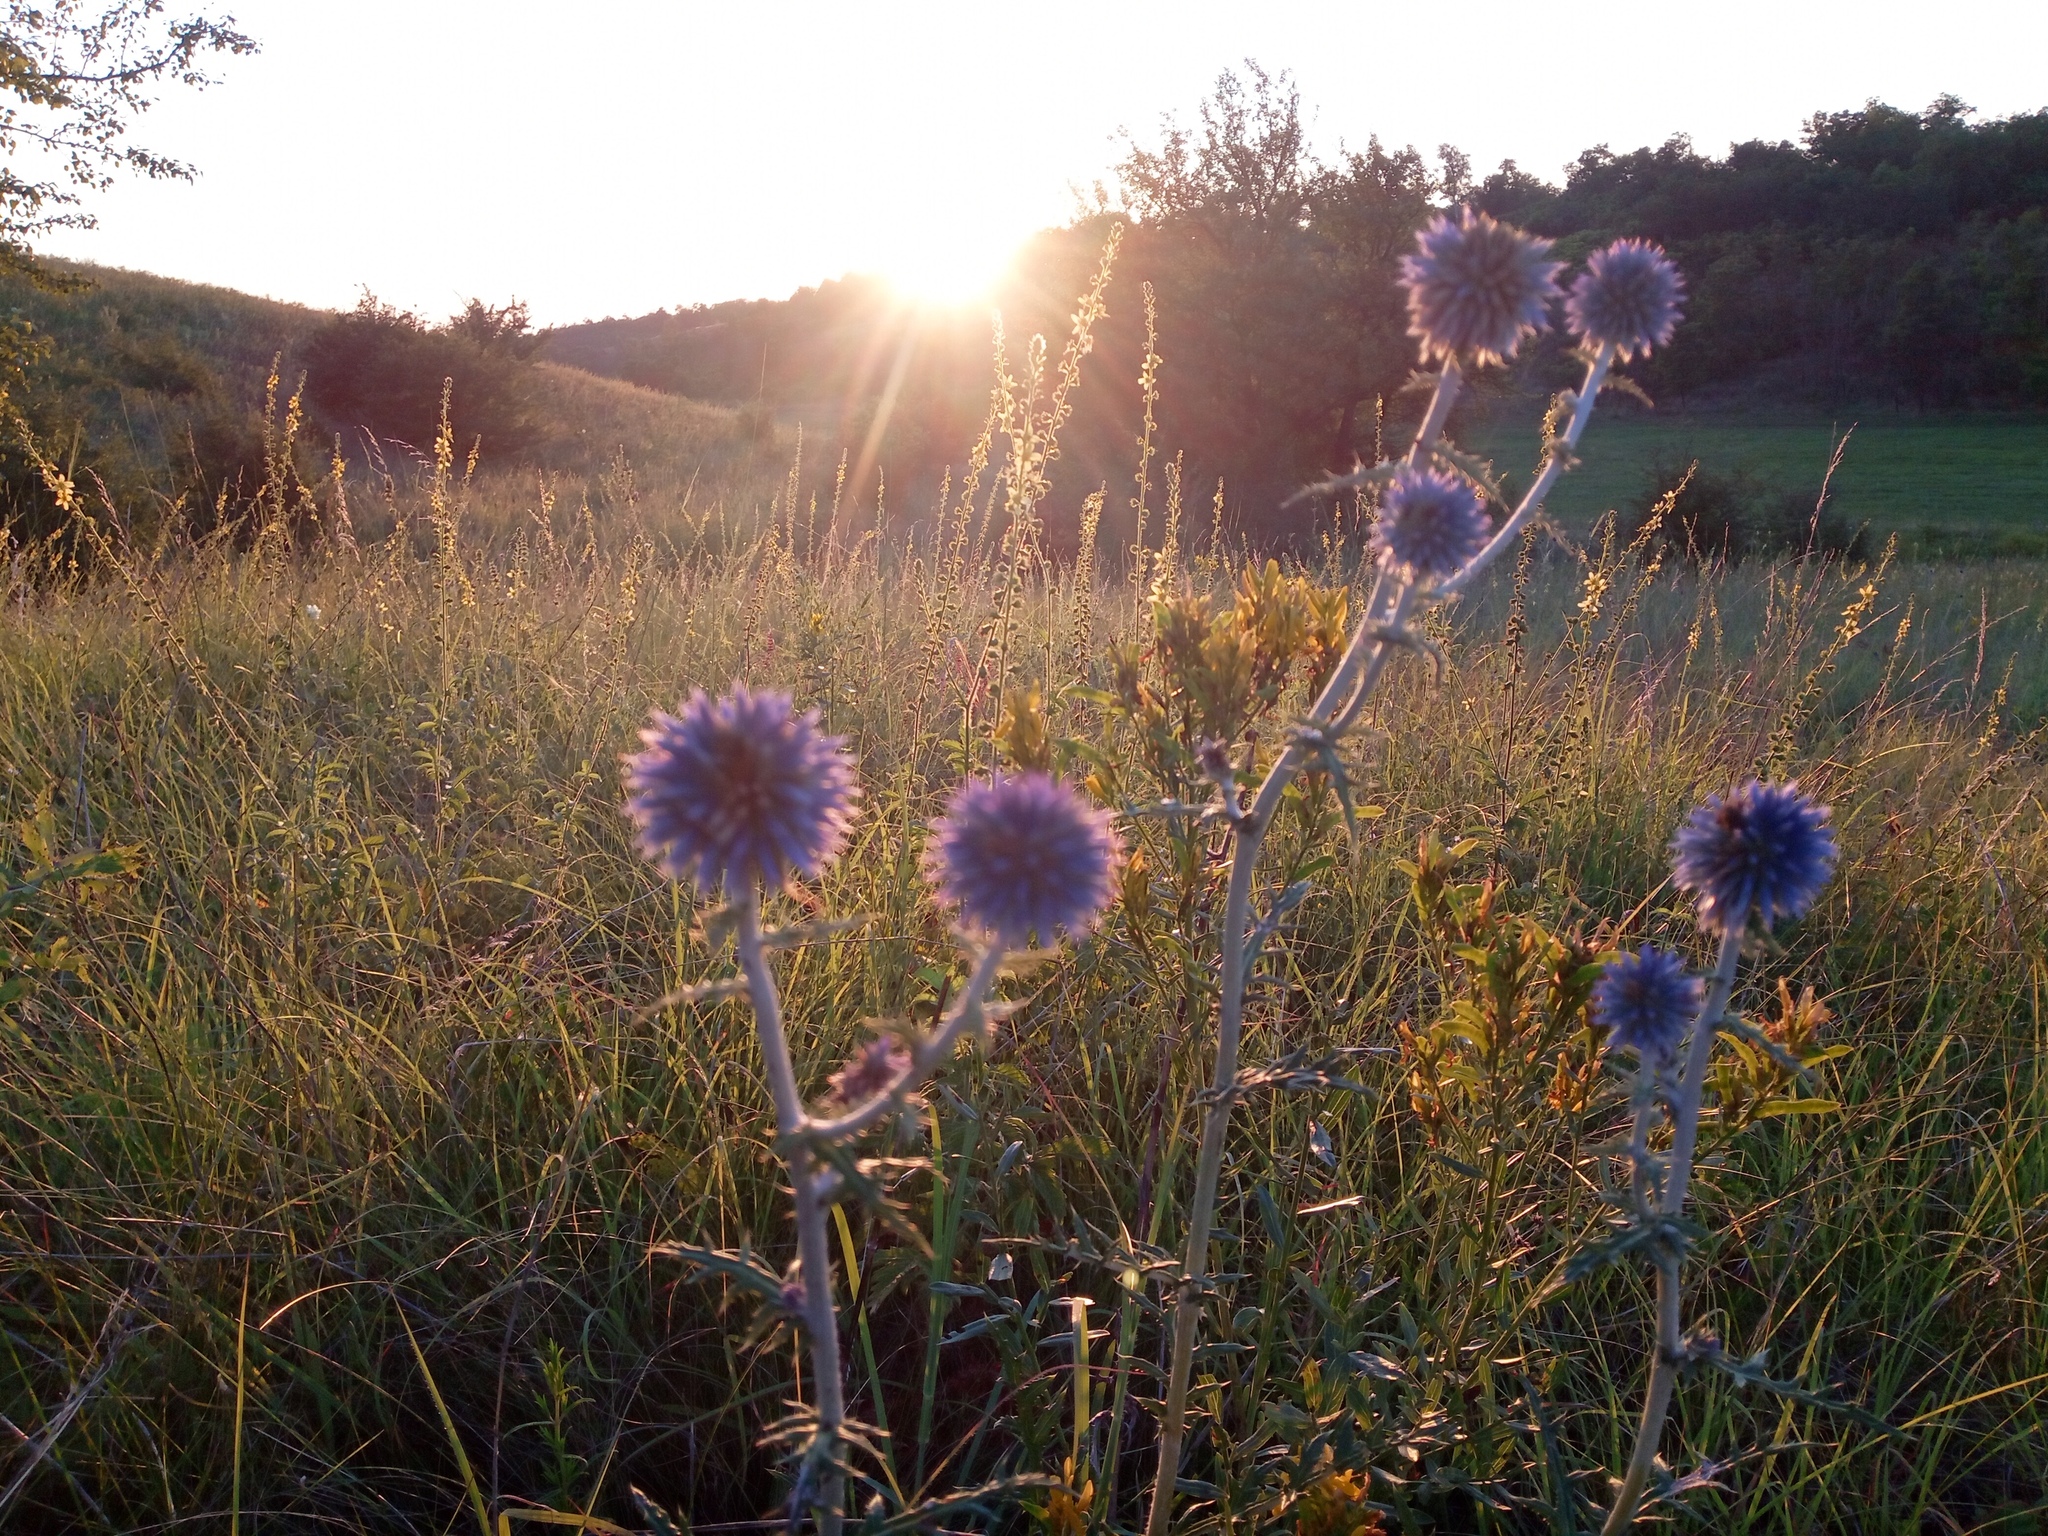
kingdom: Plantae
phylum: Tracheophyta
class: Magnoliopsida
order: Asterales
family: Asteraceae
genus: Echinops
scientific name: Echinops ritro
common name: Globe thistle
